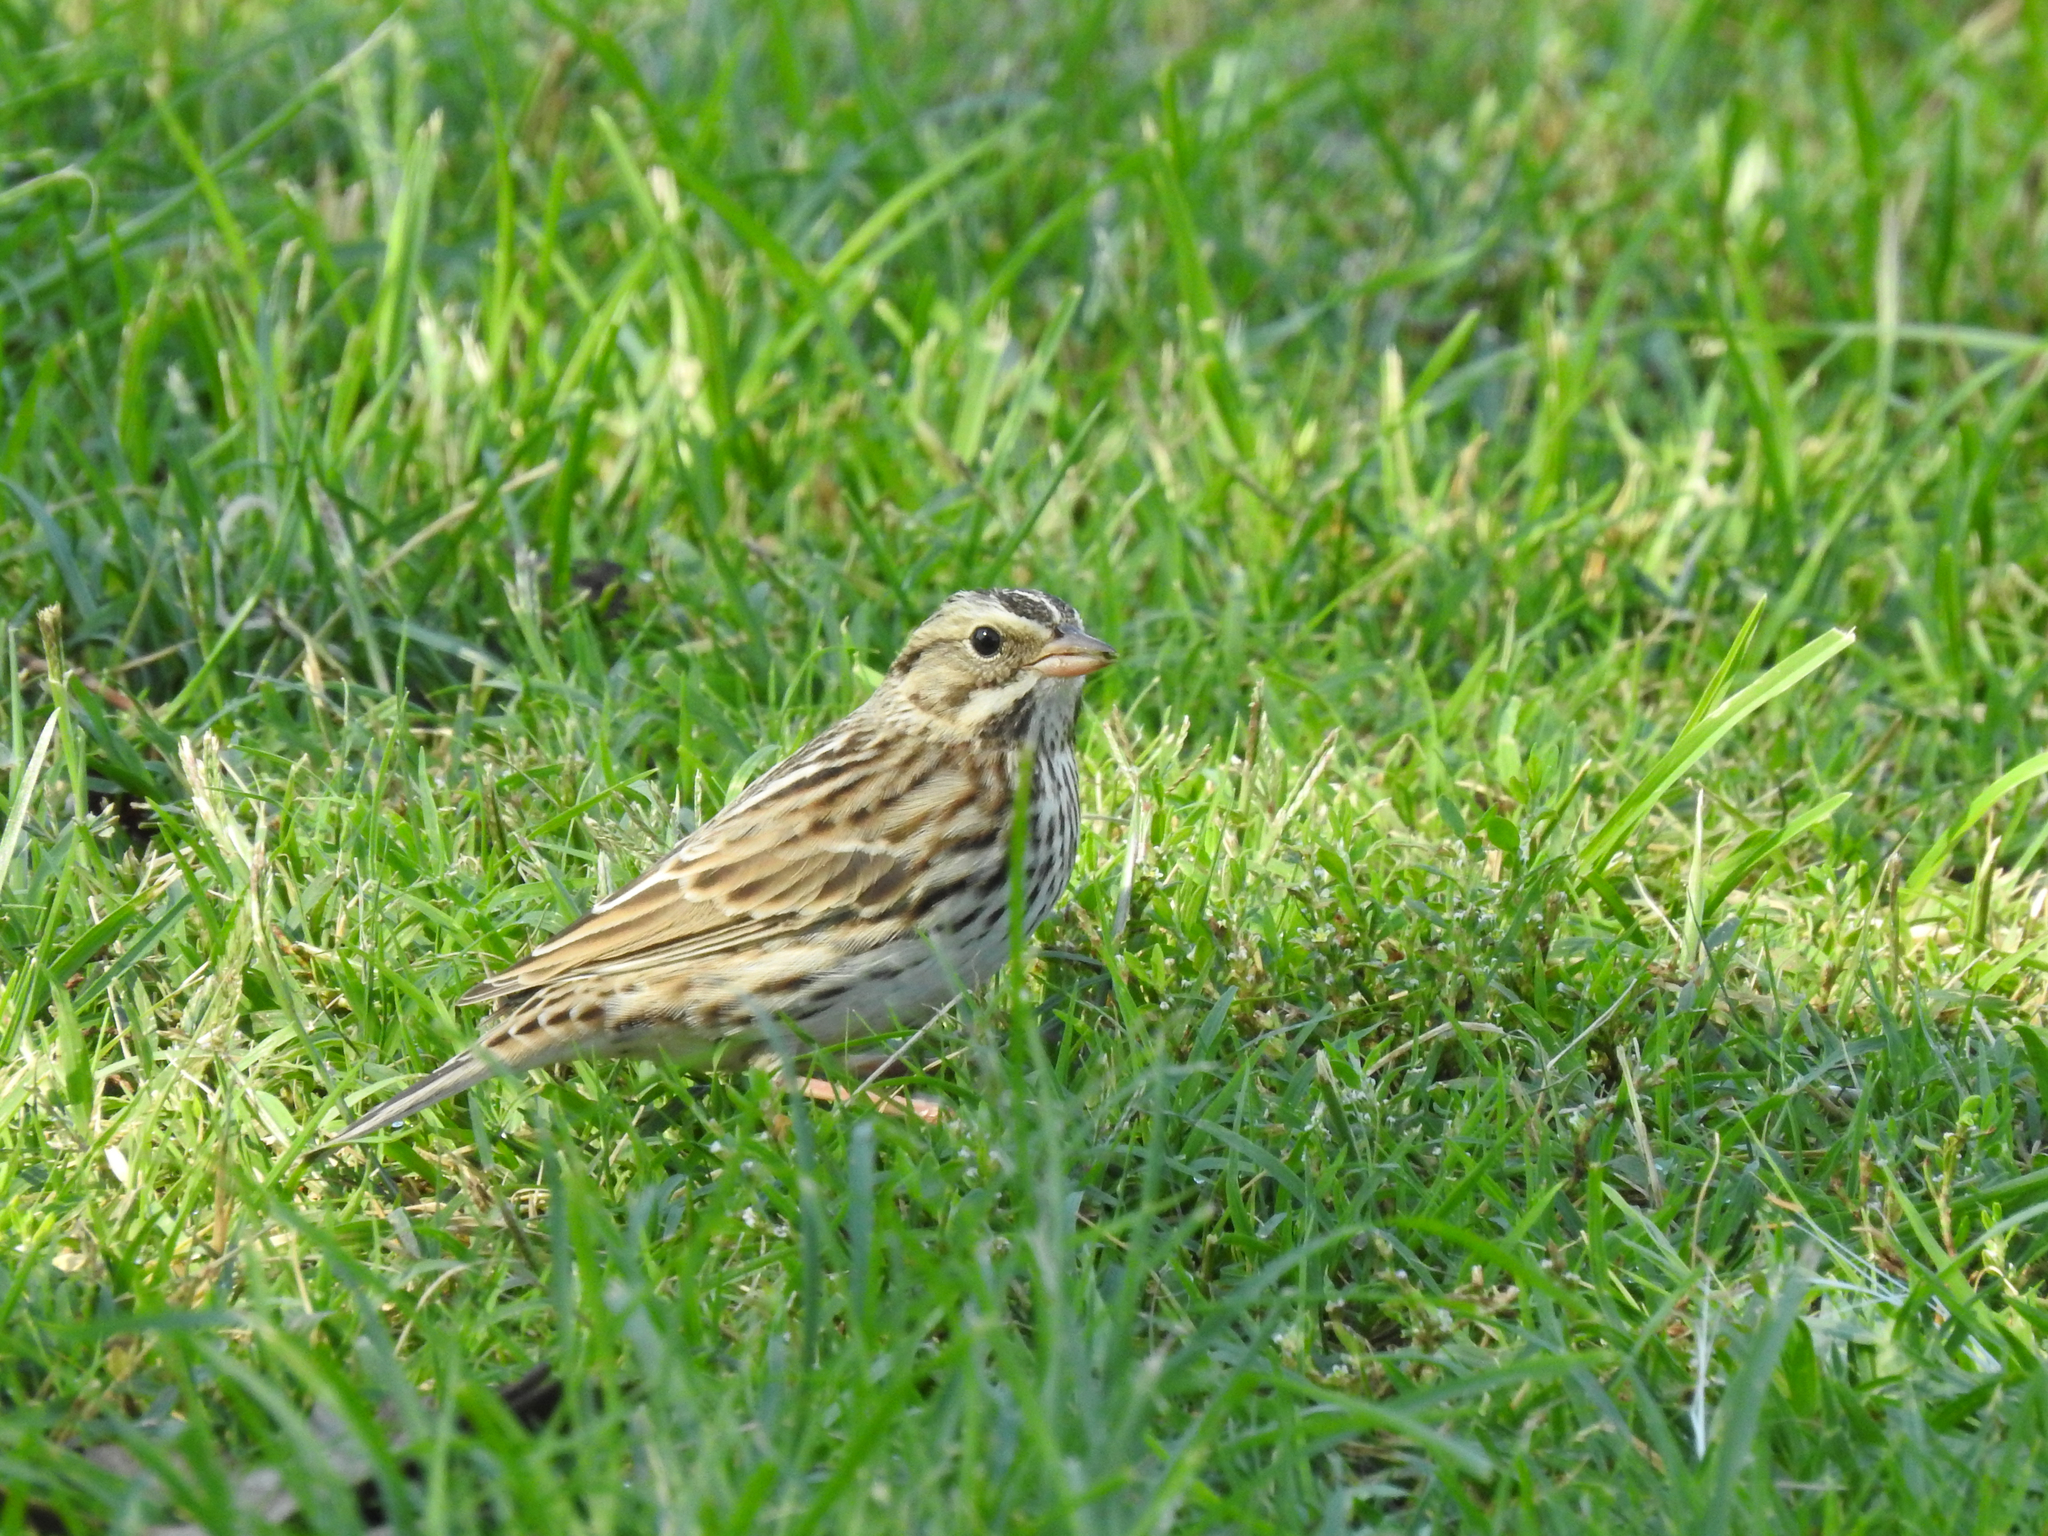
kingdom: Animalia
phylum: Chordata
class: Aves
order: Passeriformes
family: Passerellidae
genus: Passerculus
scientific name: Passerculus sandwichensis
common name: Savannah sparrow
